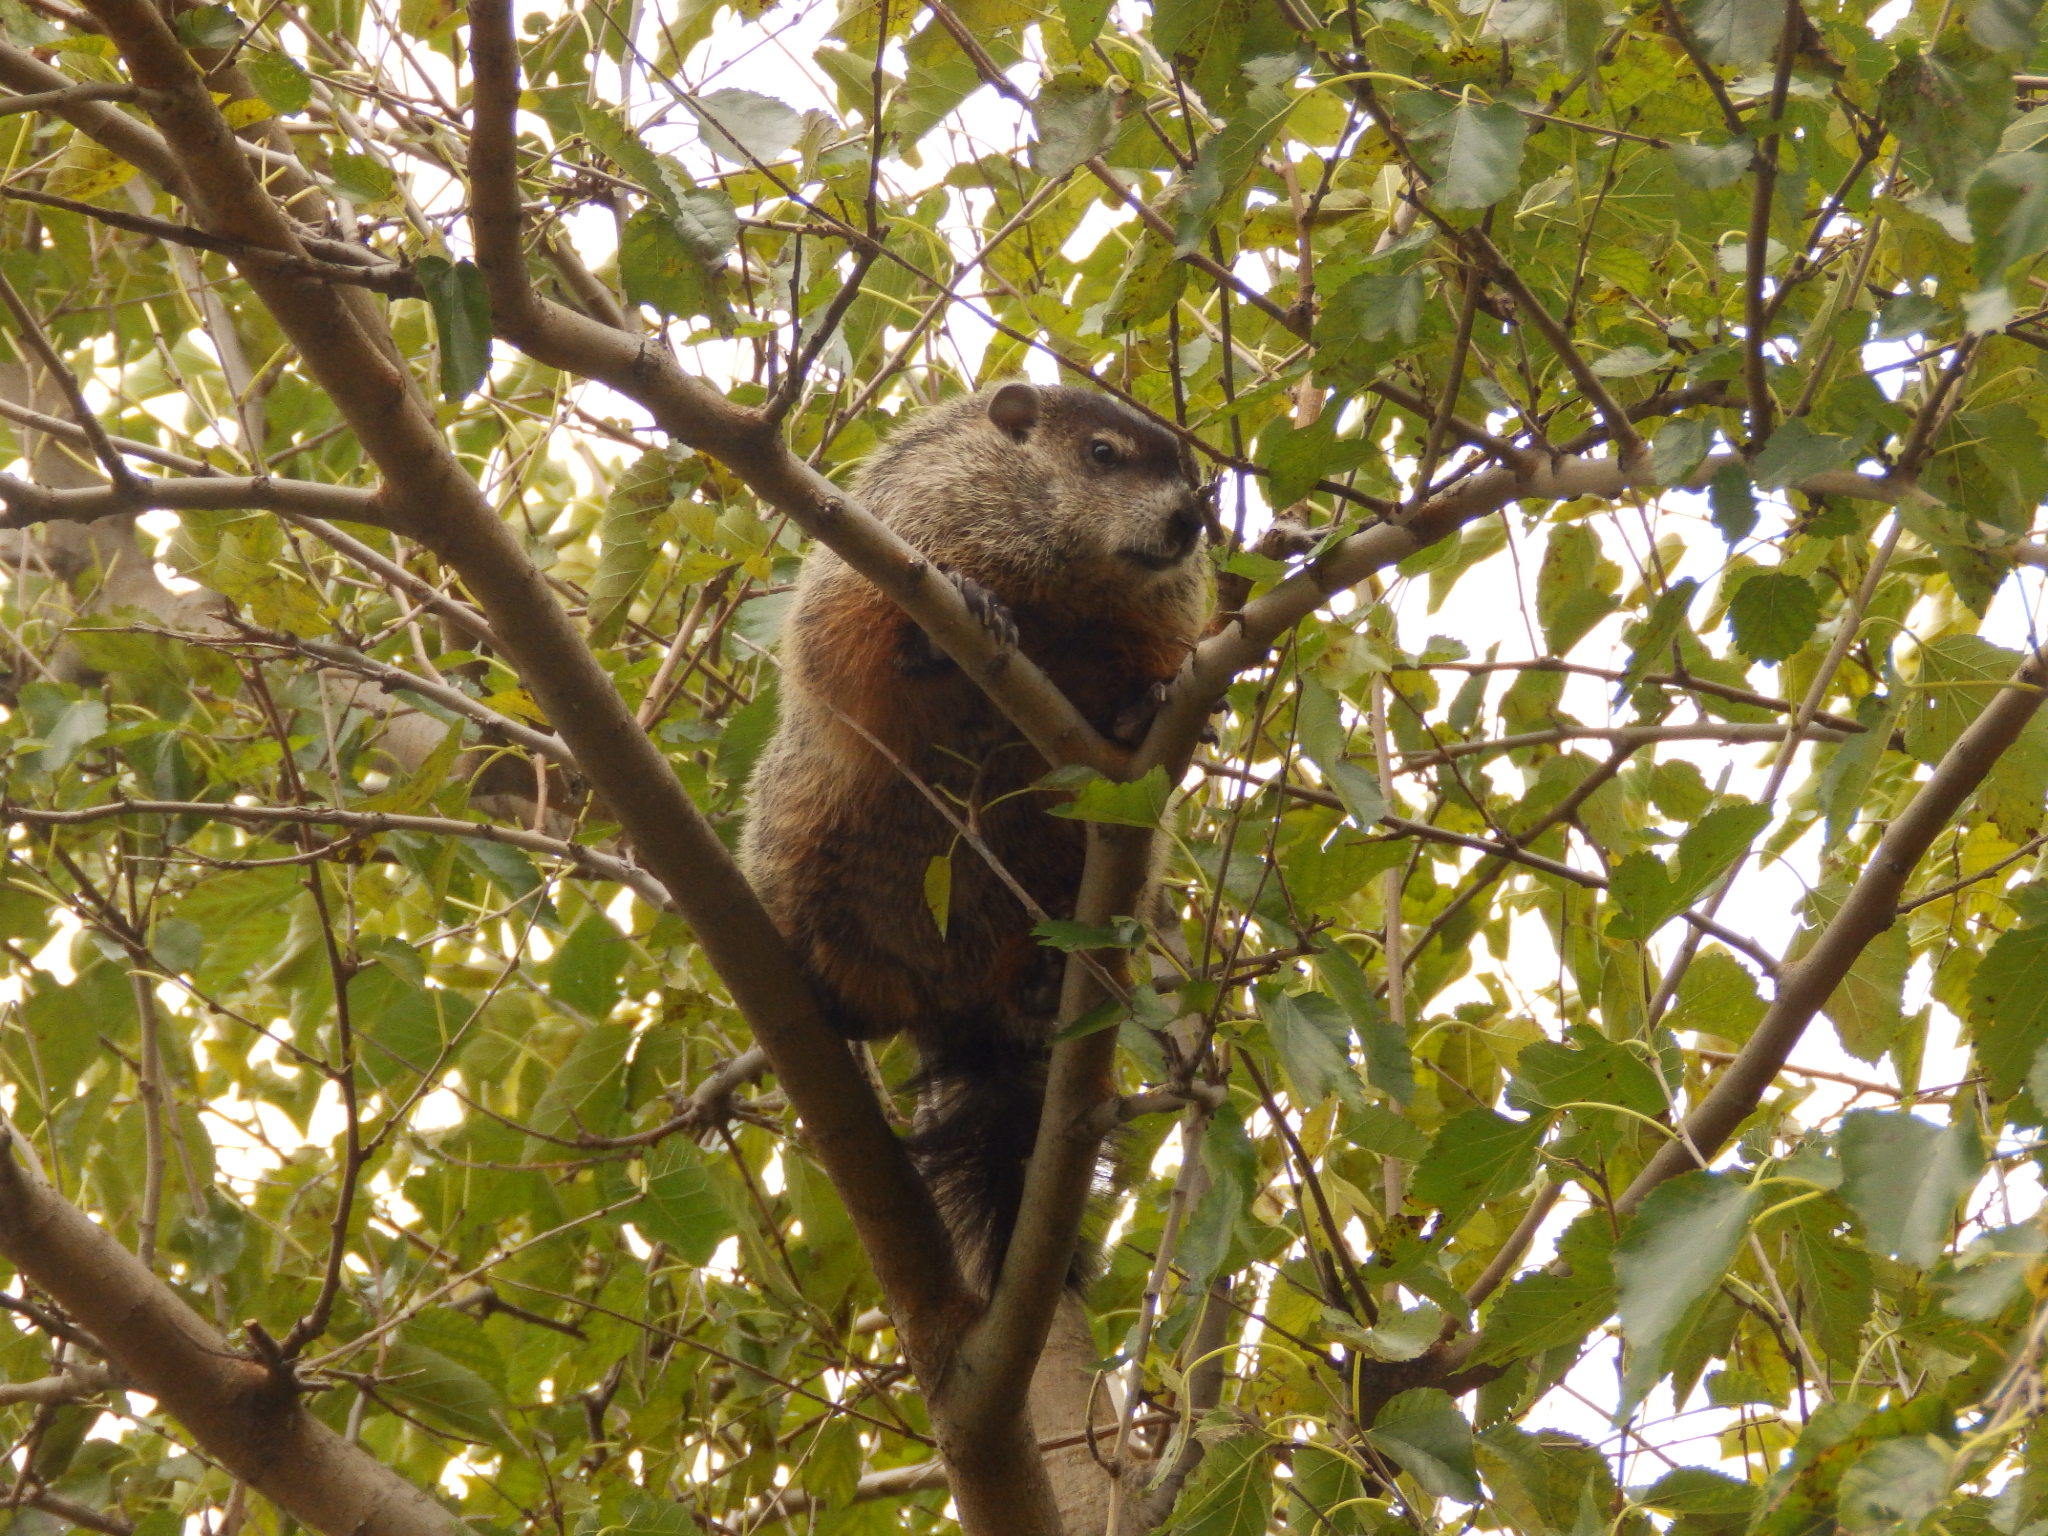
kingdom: Animalia
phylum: Chordata
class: Mammalia
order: Rodentia
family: Sciuridae
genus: Marmota
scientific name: Marmota monax
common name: Groundhog
